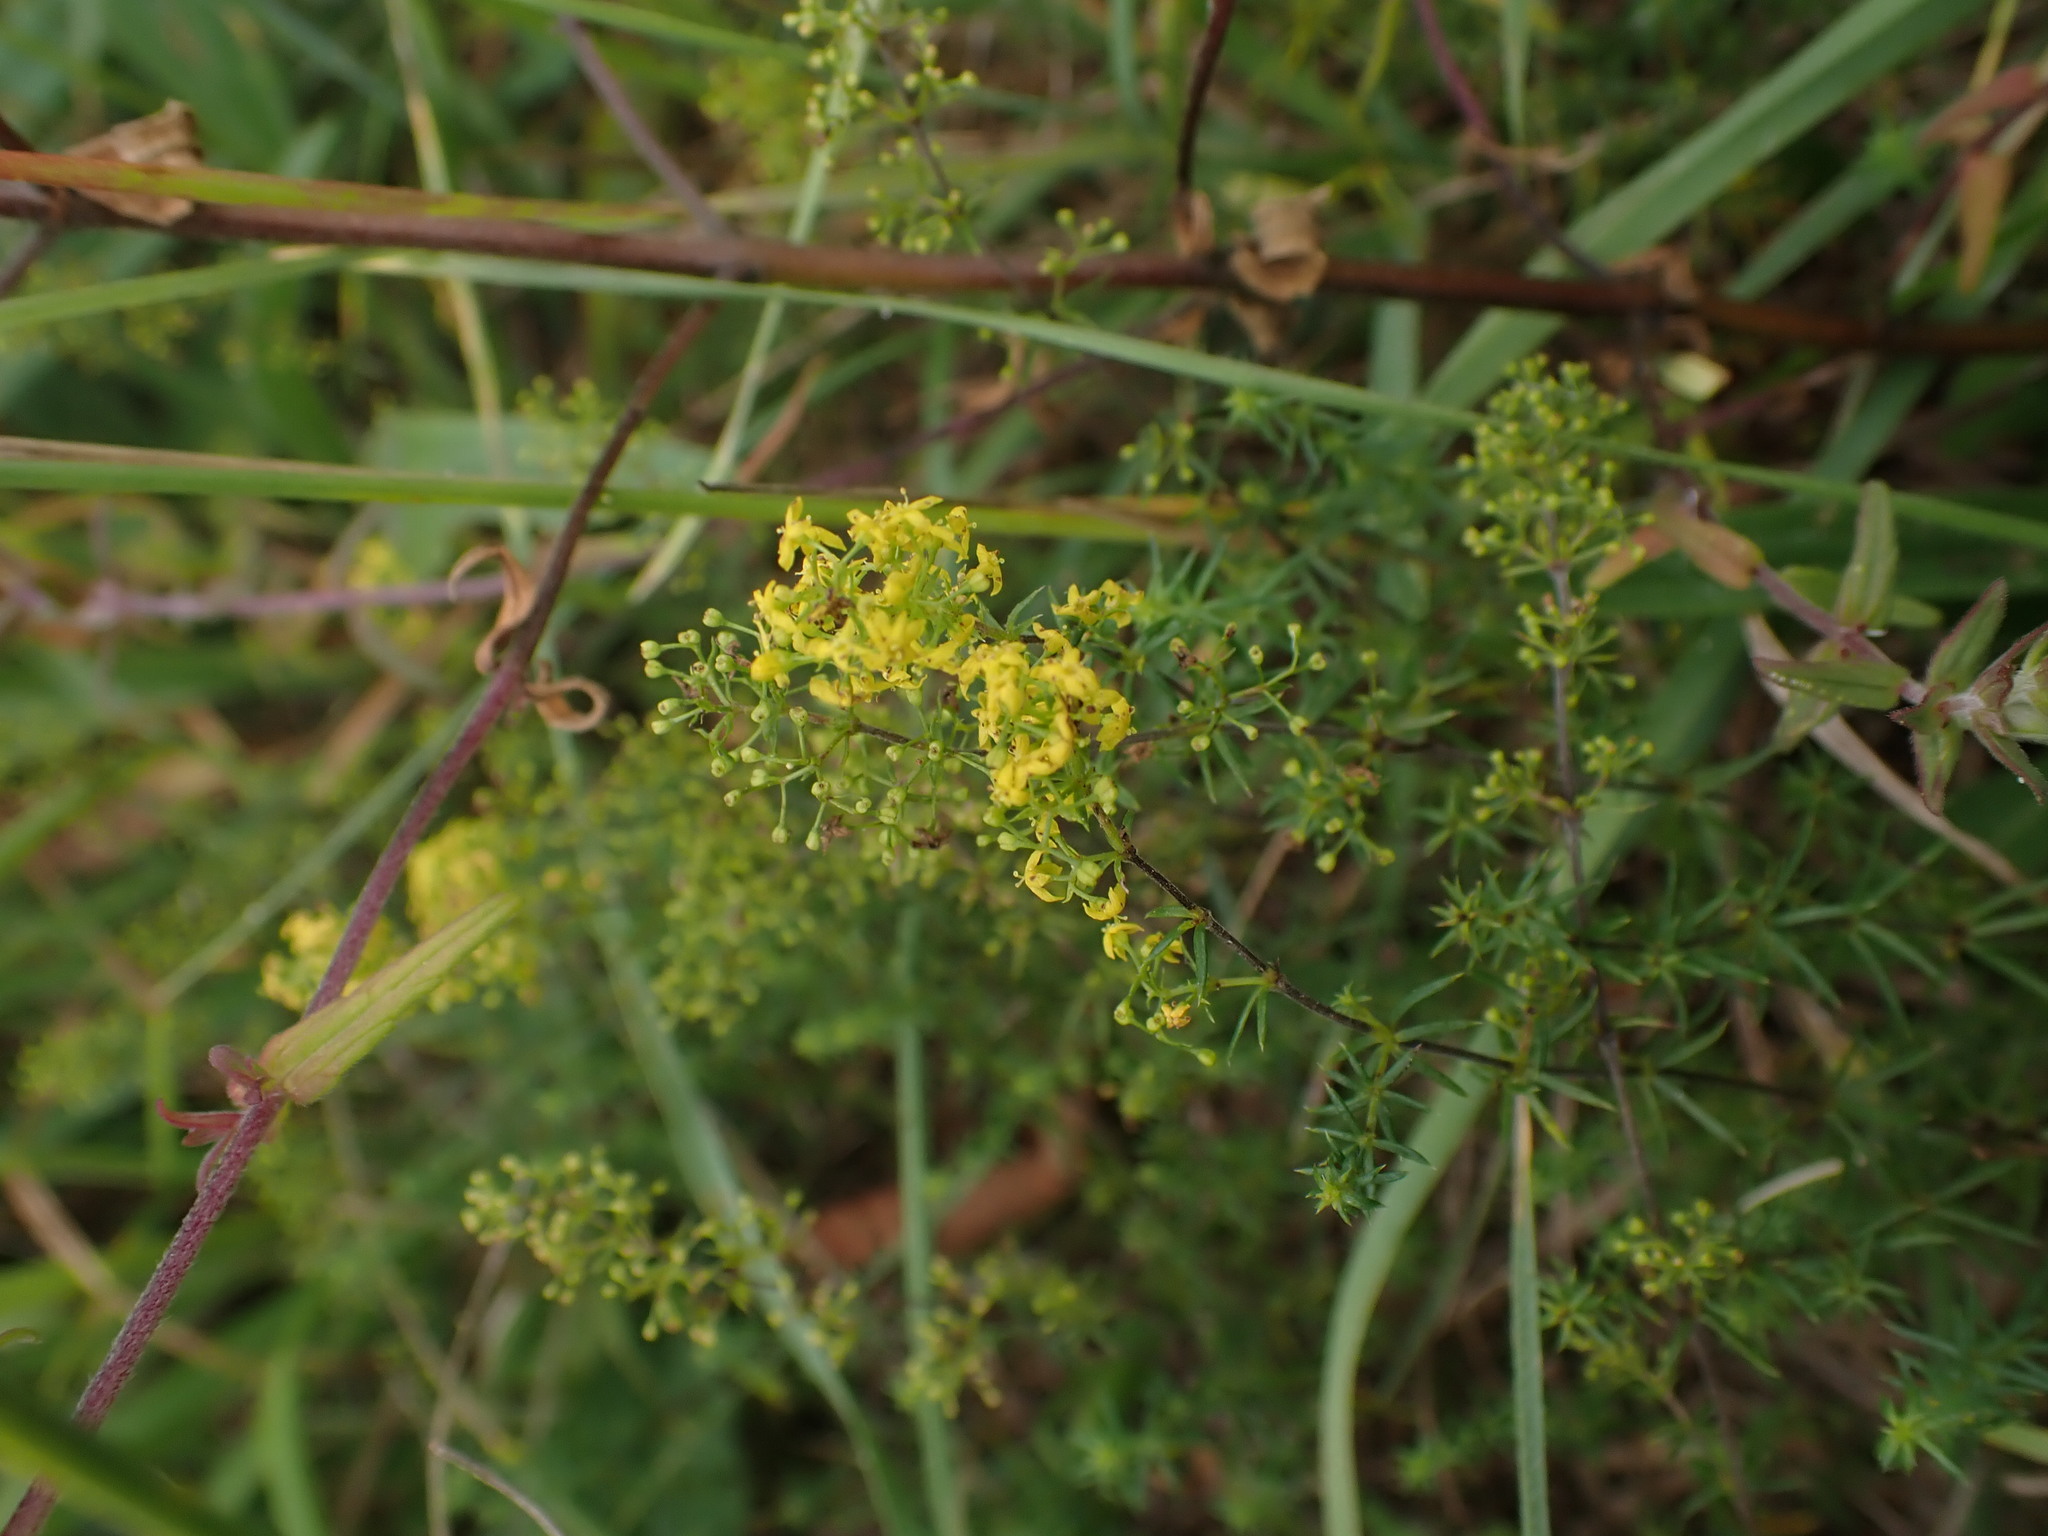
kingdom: Plantae
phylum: Tracheophyta
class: Magnoliopsida
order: Gentianales
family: Rubiaceae
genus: Galium
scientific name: Galium verum
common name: Lady's bedstraw
